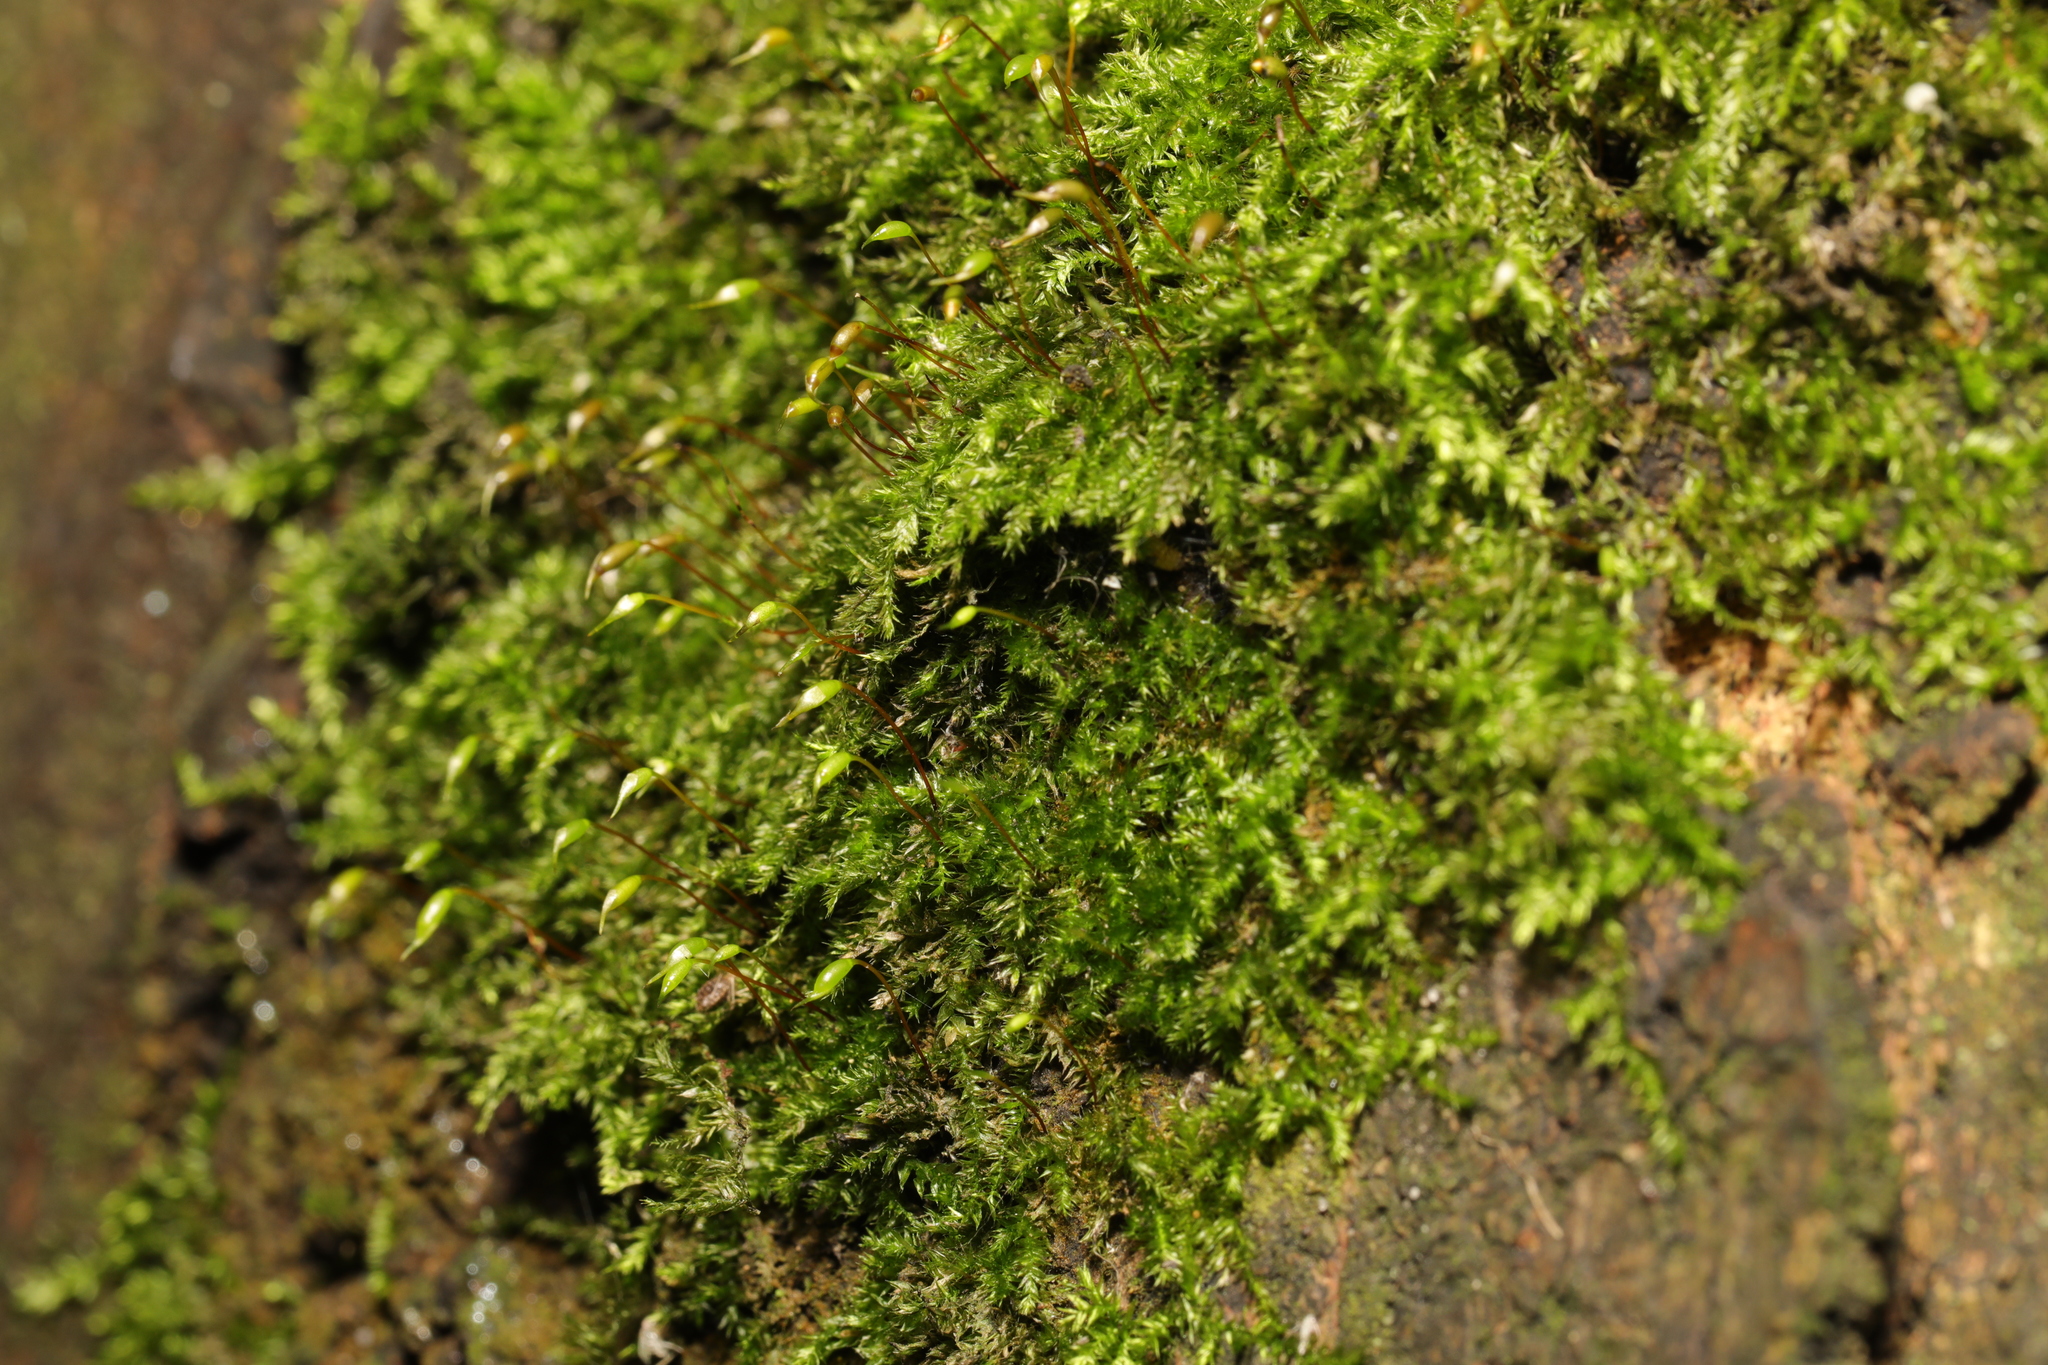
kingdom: Plantae
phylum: Bryophyta
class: Bryopsida
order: Hypnales
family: Brachytheciaceae
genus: Rhynchostegium
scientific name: Rhynchostegium confertum
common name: Clustered feather-moss
